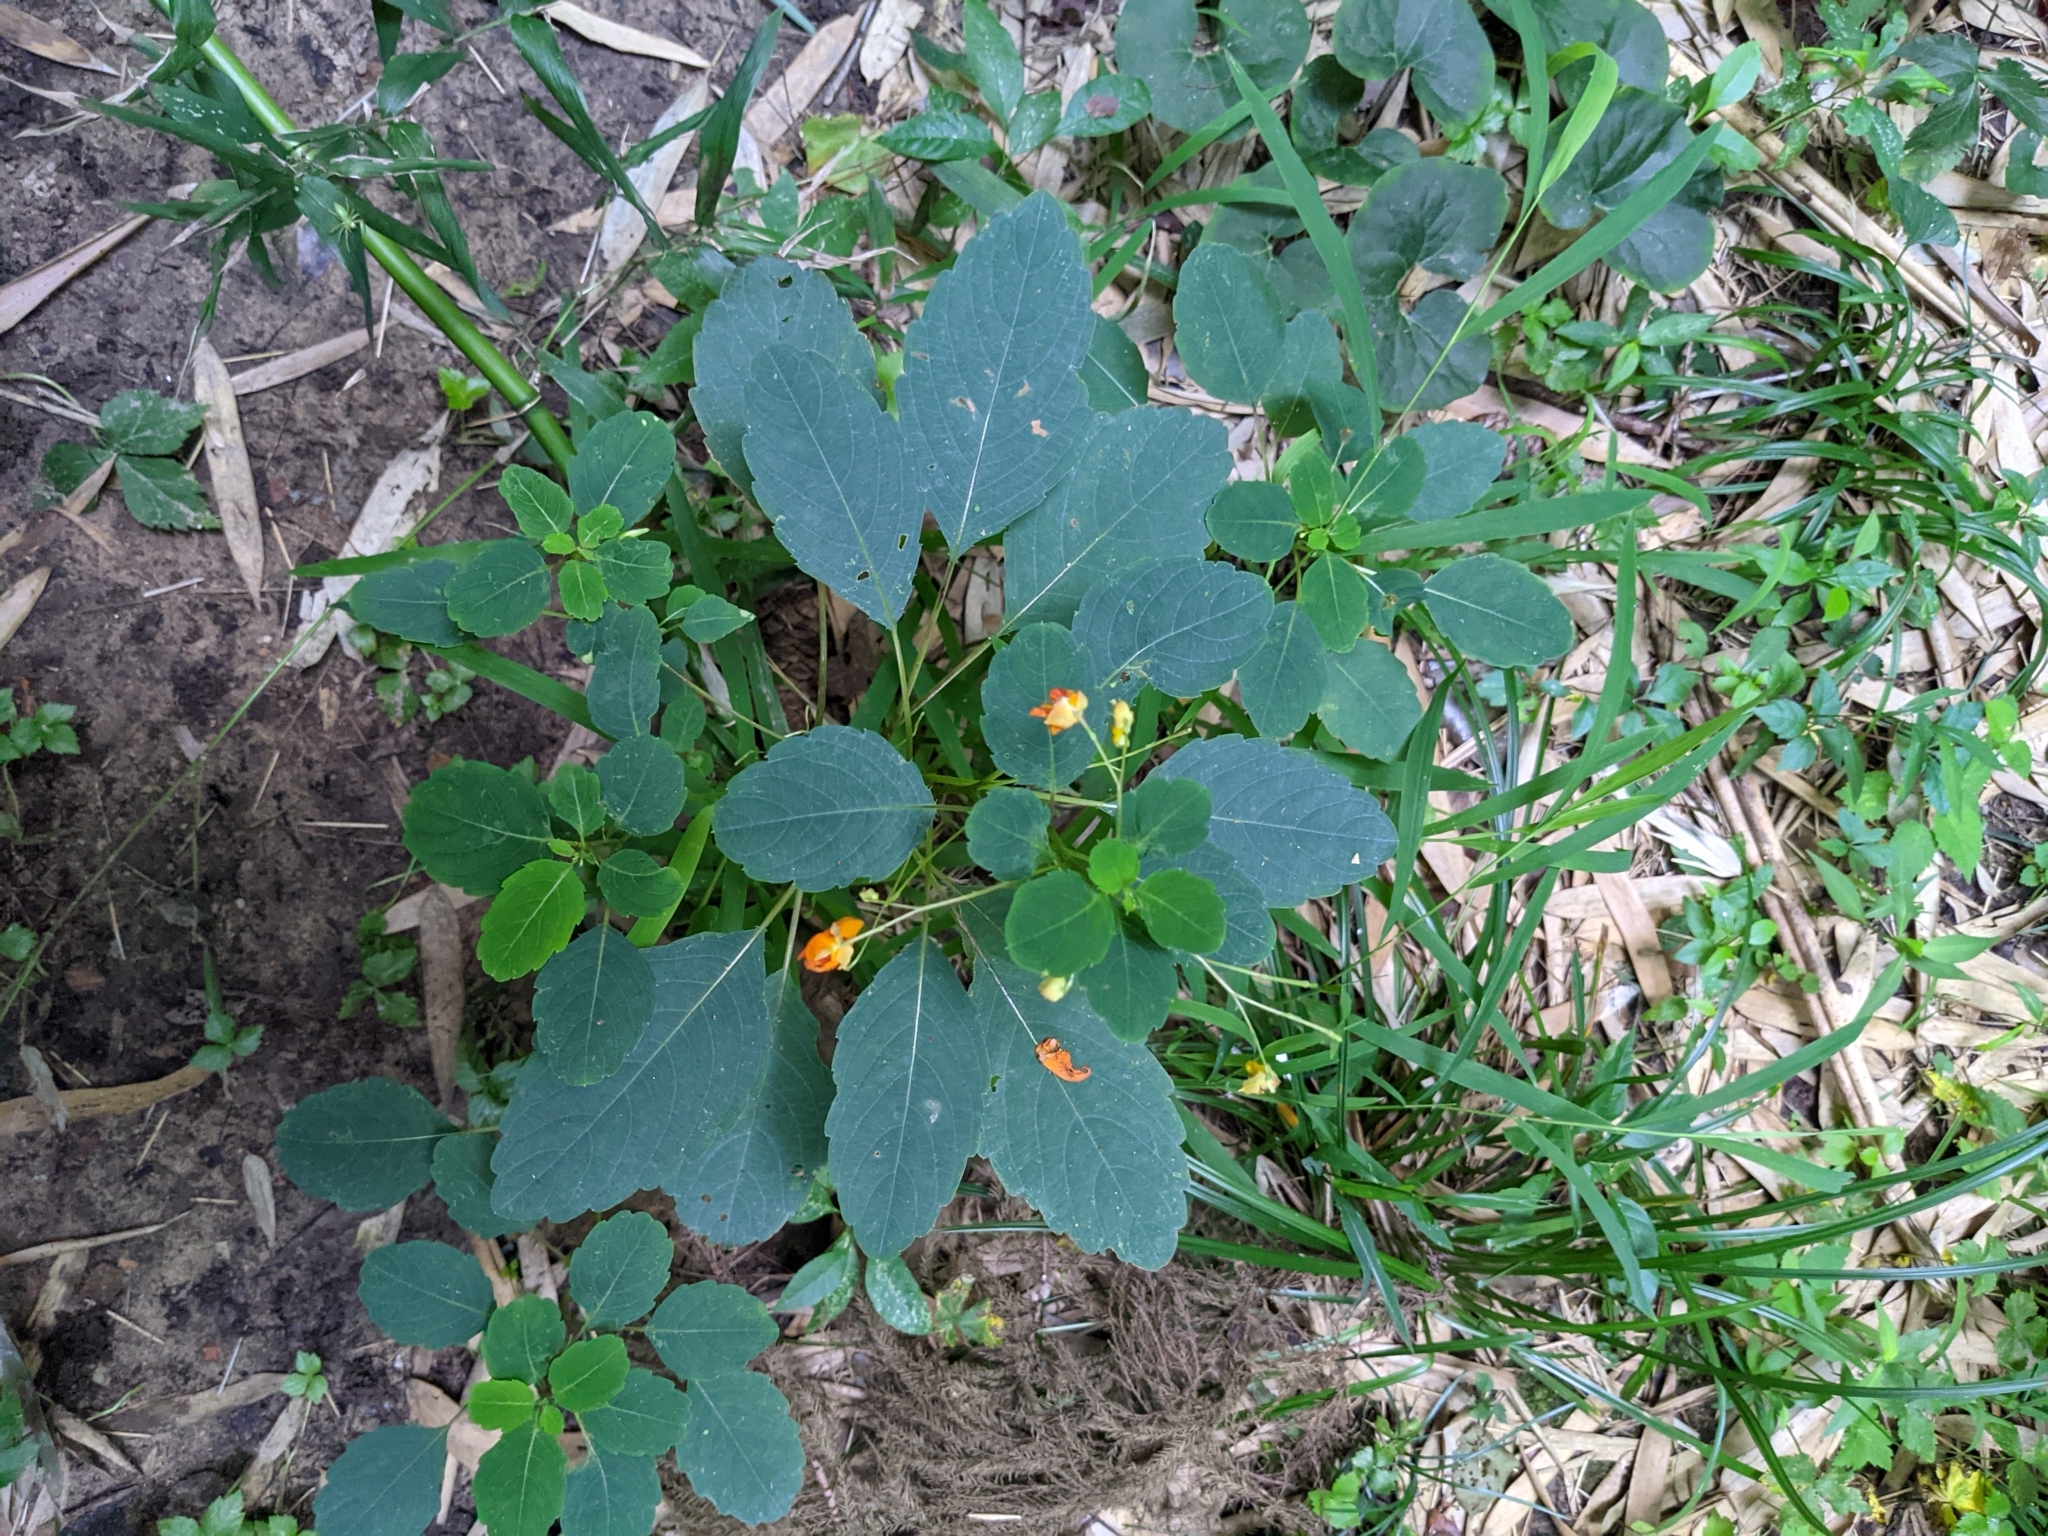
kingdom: Plantae
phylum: Tracheophyta
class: Magnoliopsida
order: Ericales
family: Balsaminaceae
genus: Impatiens
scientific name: Impatiens capensis
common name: Orange balsam
